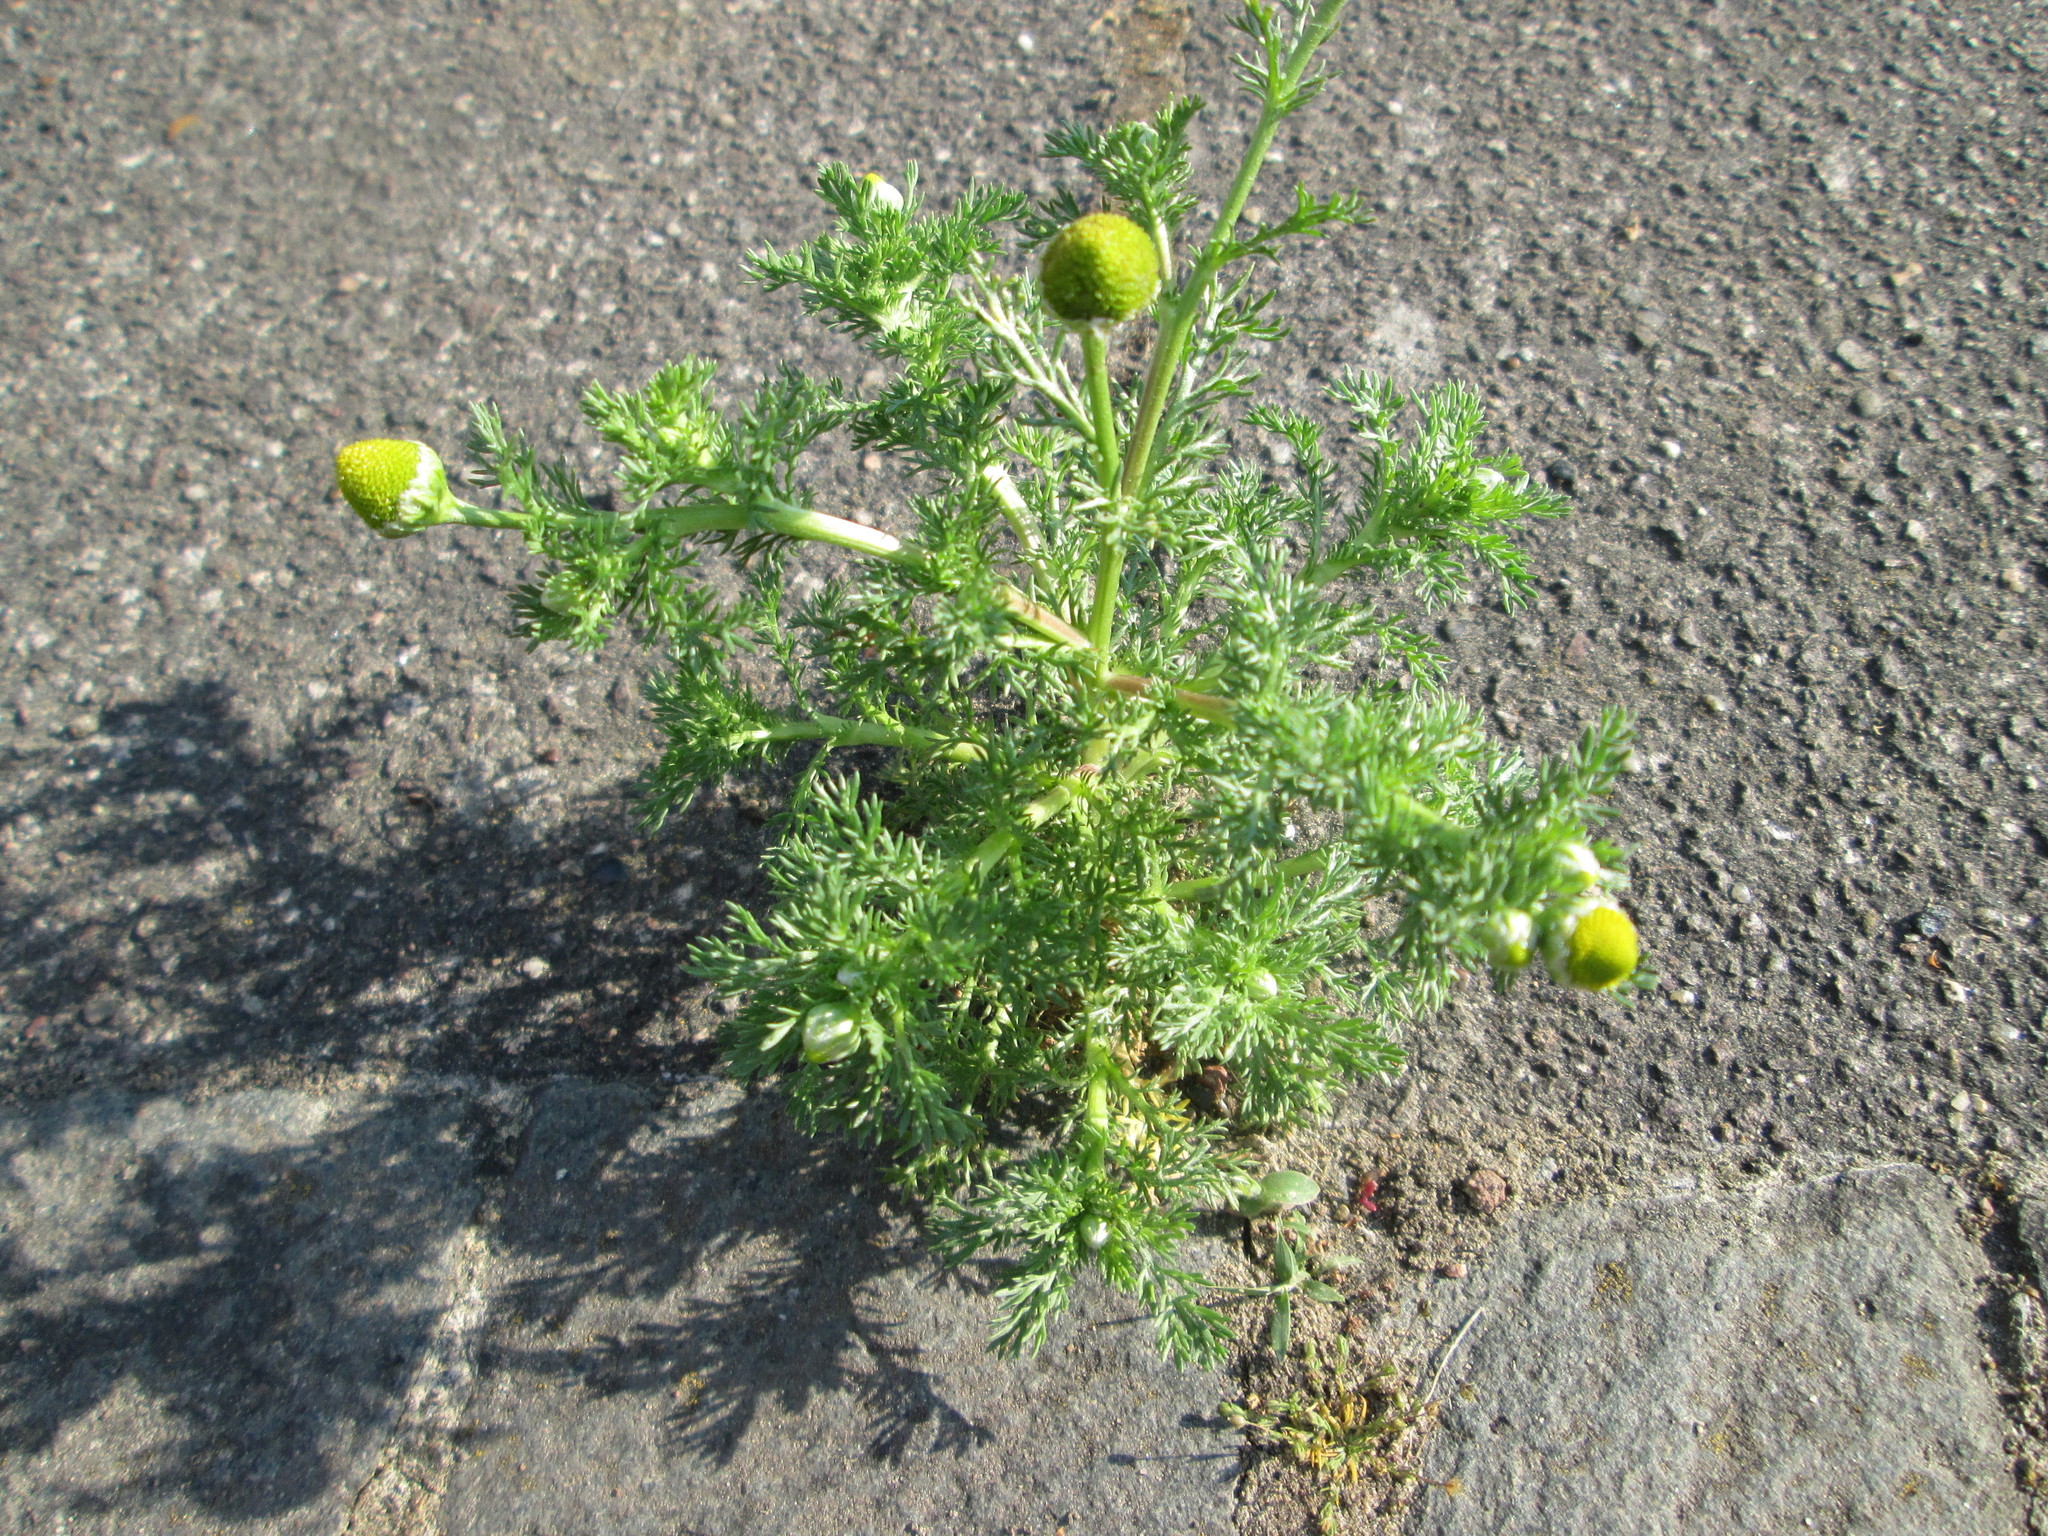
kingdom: Plantae
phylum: Tracheophyta
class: Magnoliopsida
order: Asterales
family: Asteraceae
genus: Matricaria
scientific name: Matricaria discoidea
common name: Disc mayweed
